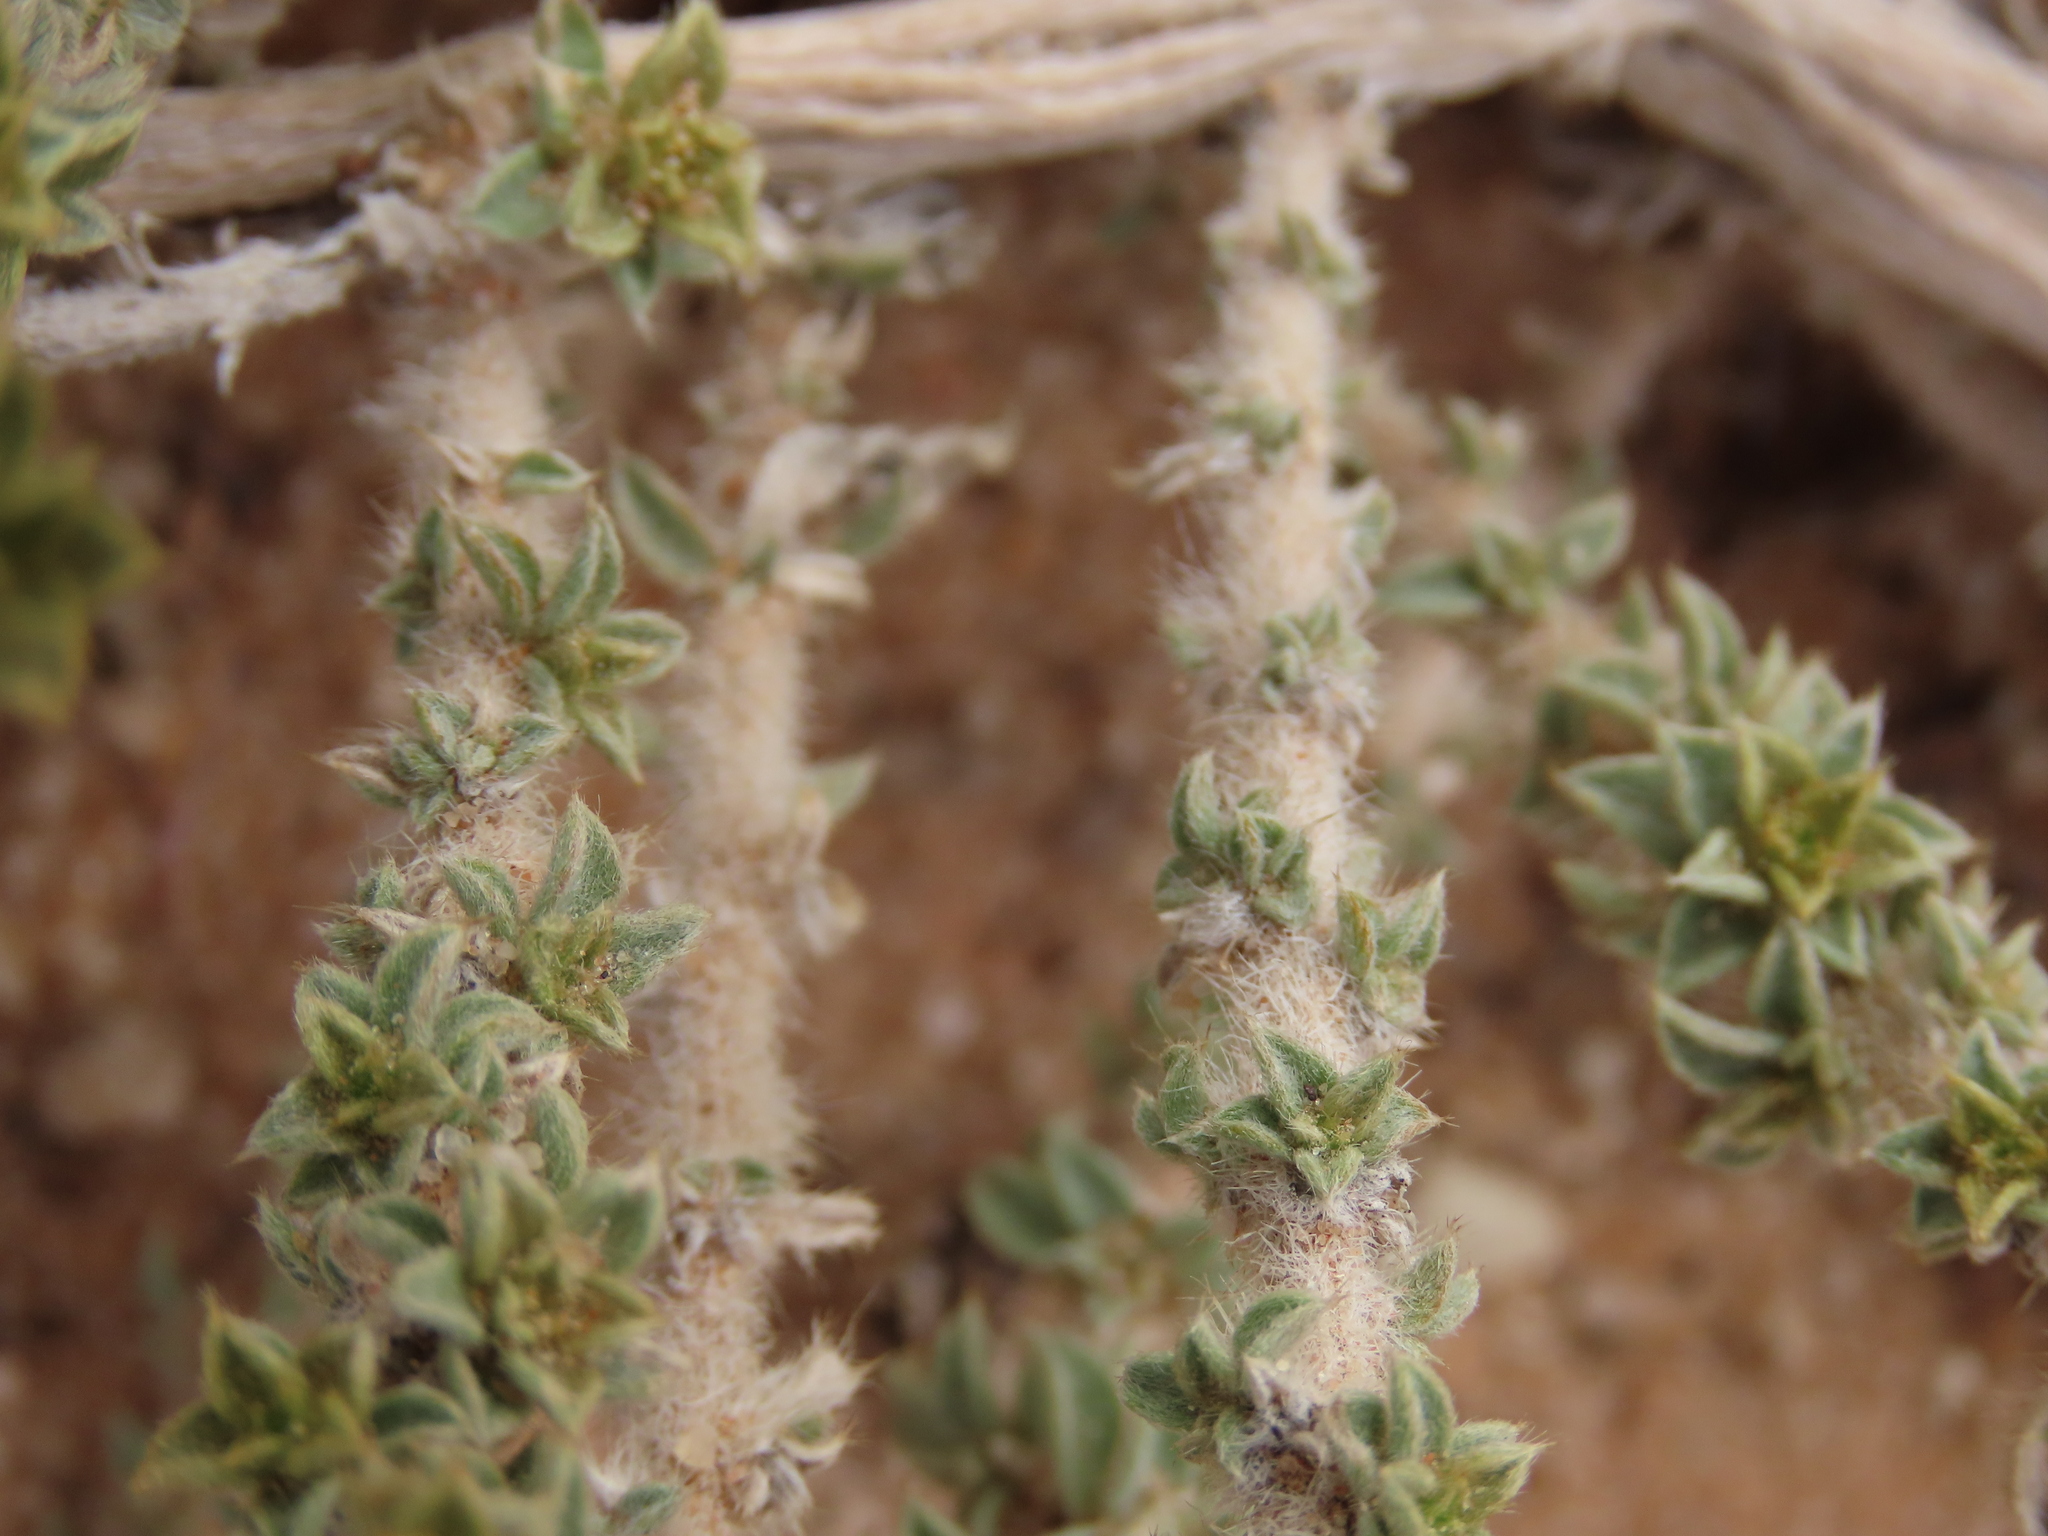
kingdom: Plantae
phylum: Tracheophyta
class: Magnoliopsida
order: Caryophyllales
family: Aizoaceae
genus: Aizoon
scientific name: Aizoon cryptocarpum
